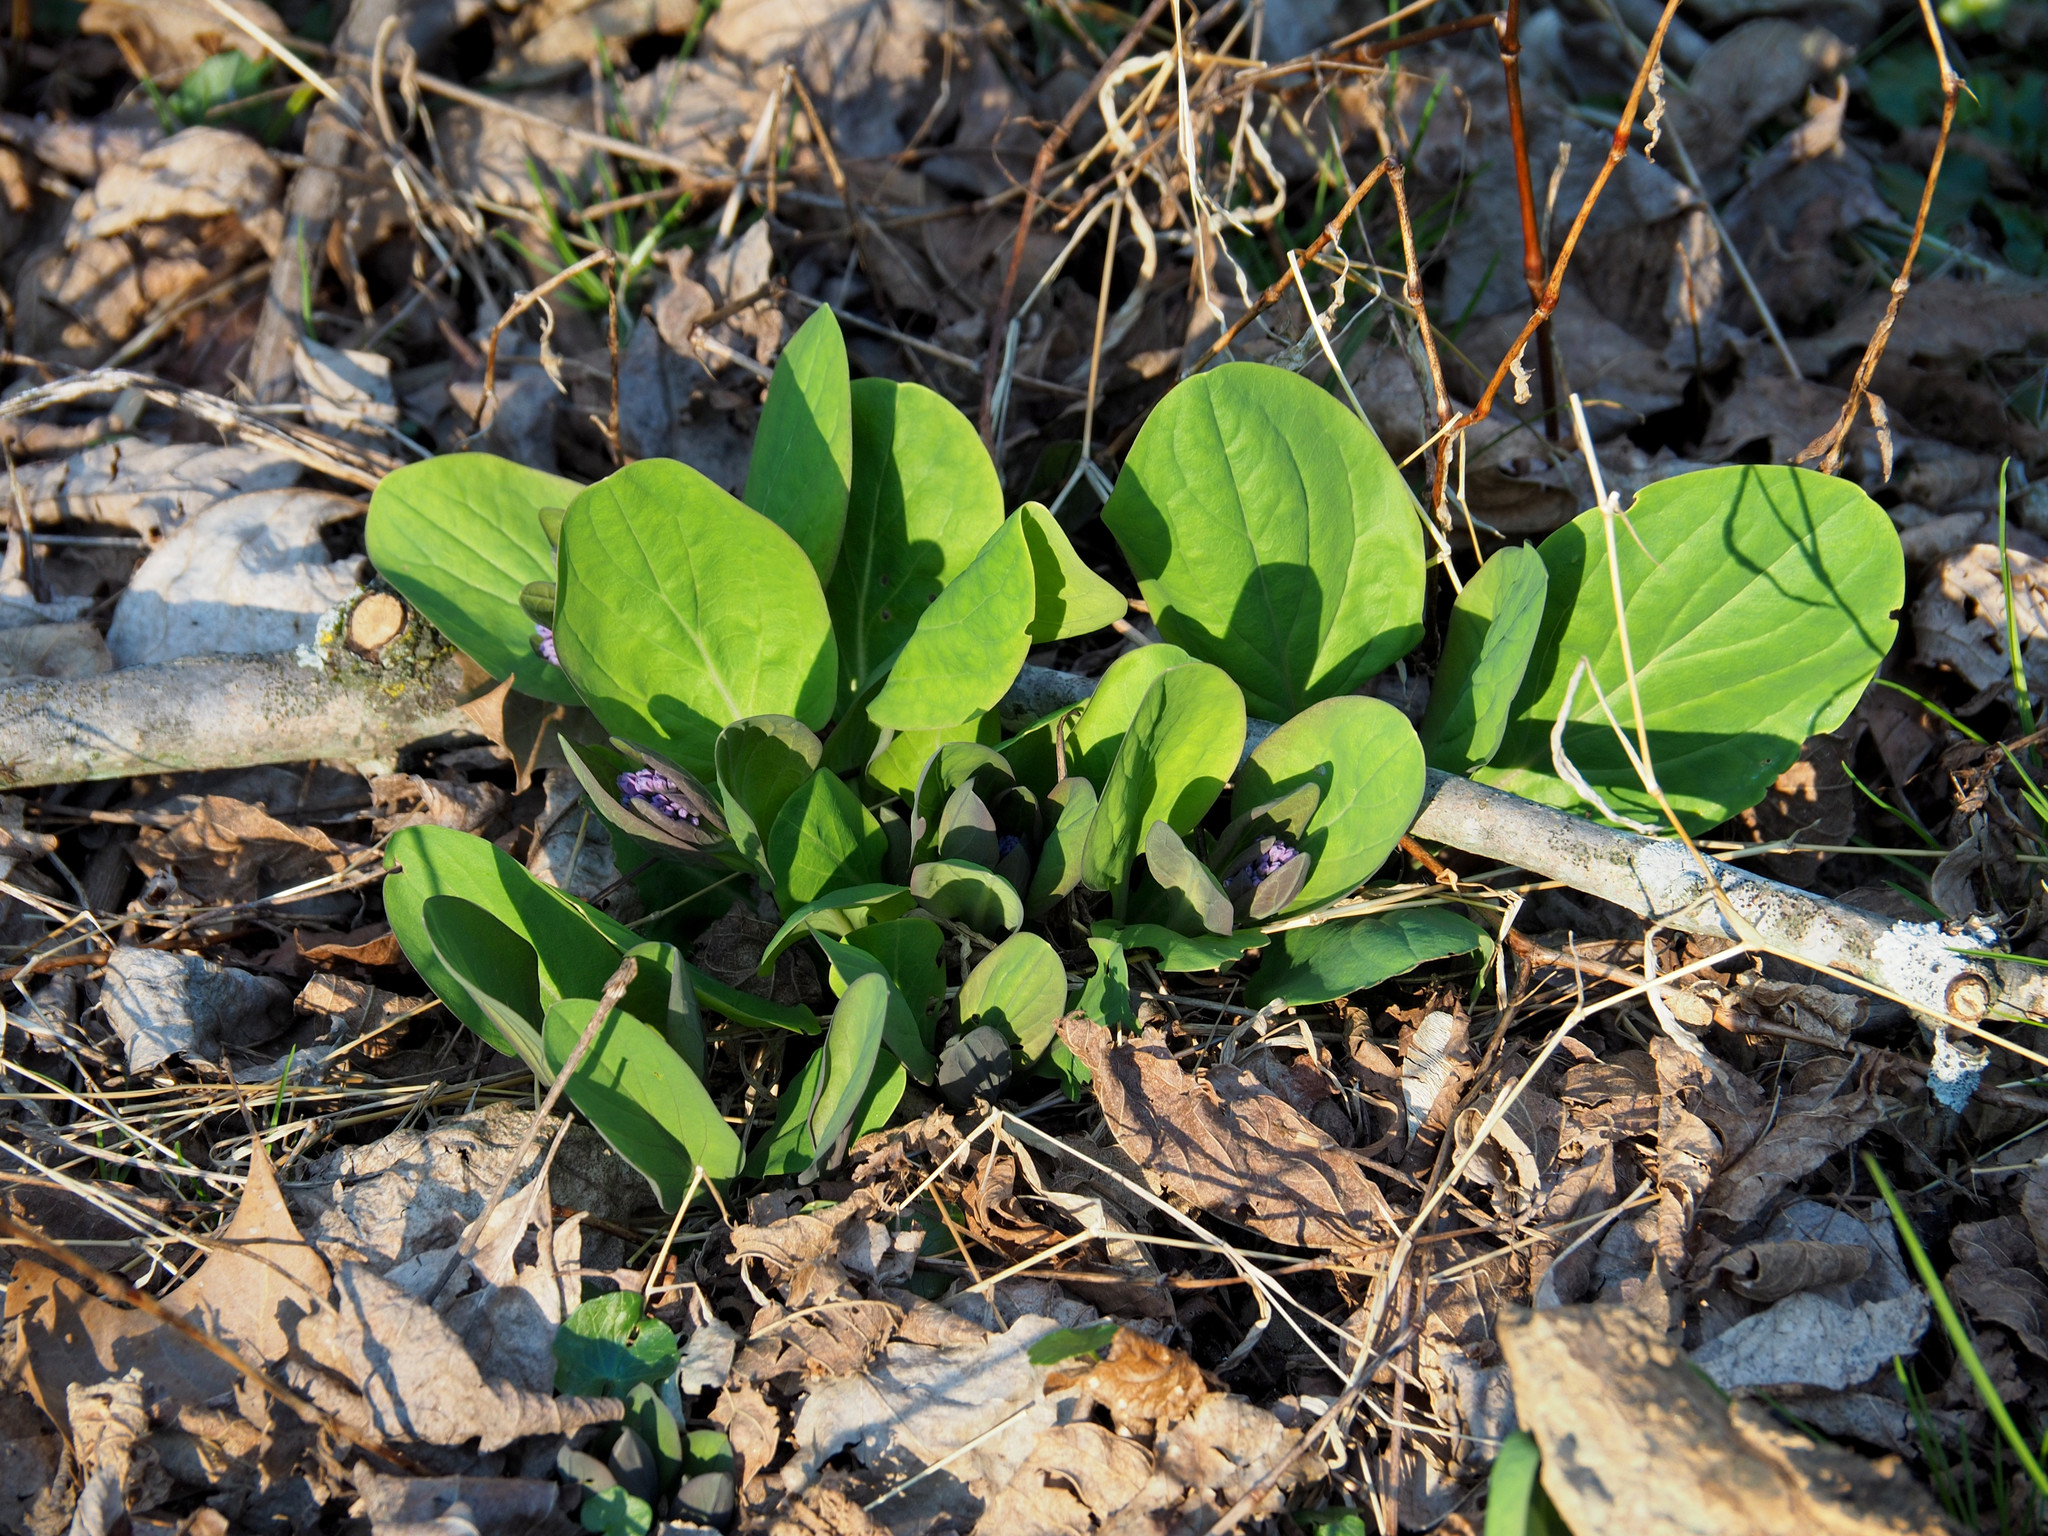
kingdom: Plantae
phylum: Tracheophyta
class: Magnoliopsida
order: Boraginales
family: Boraginaceae
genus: Mertensia
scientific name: Mertensia virginica
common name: Virginia bluebells
